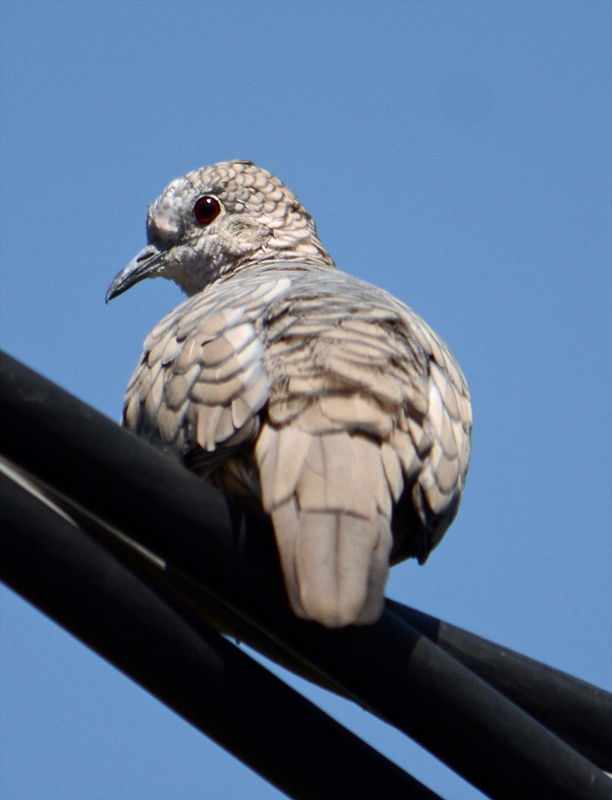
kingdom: Animalia
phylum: Chordata
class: Aves
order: Columbiformes
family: Columbidae
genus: Columbina
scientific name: Columbina inca
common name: Inca dove
